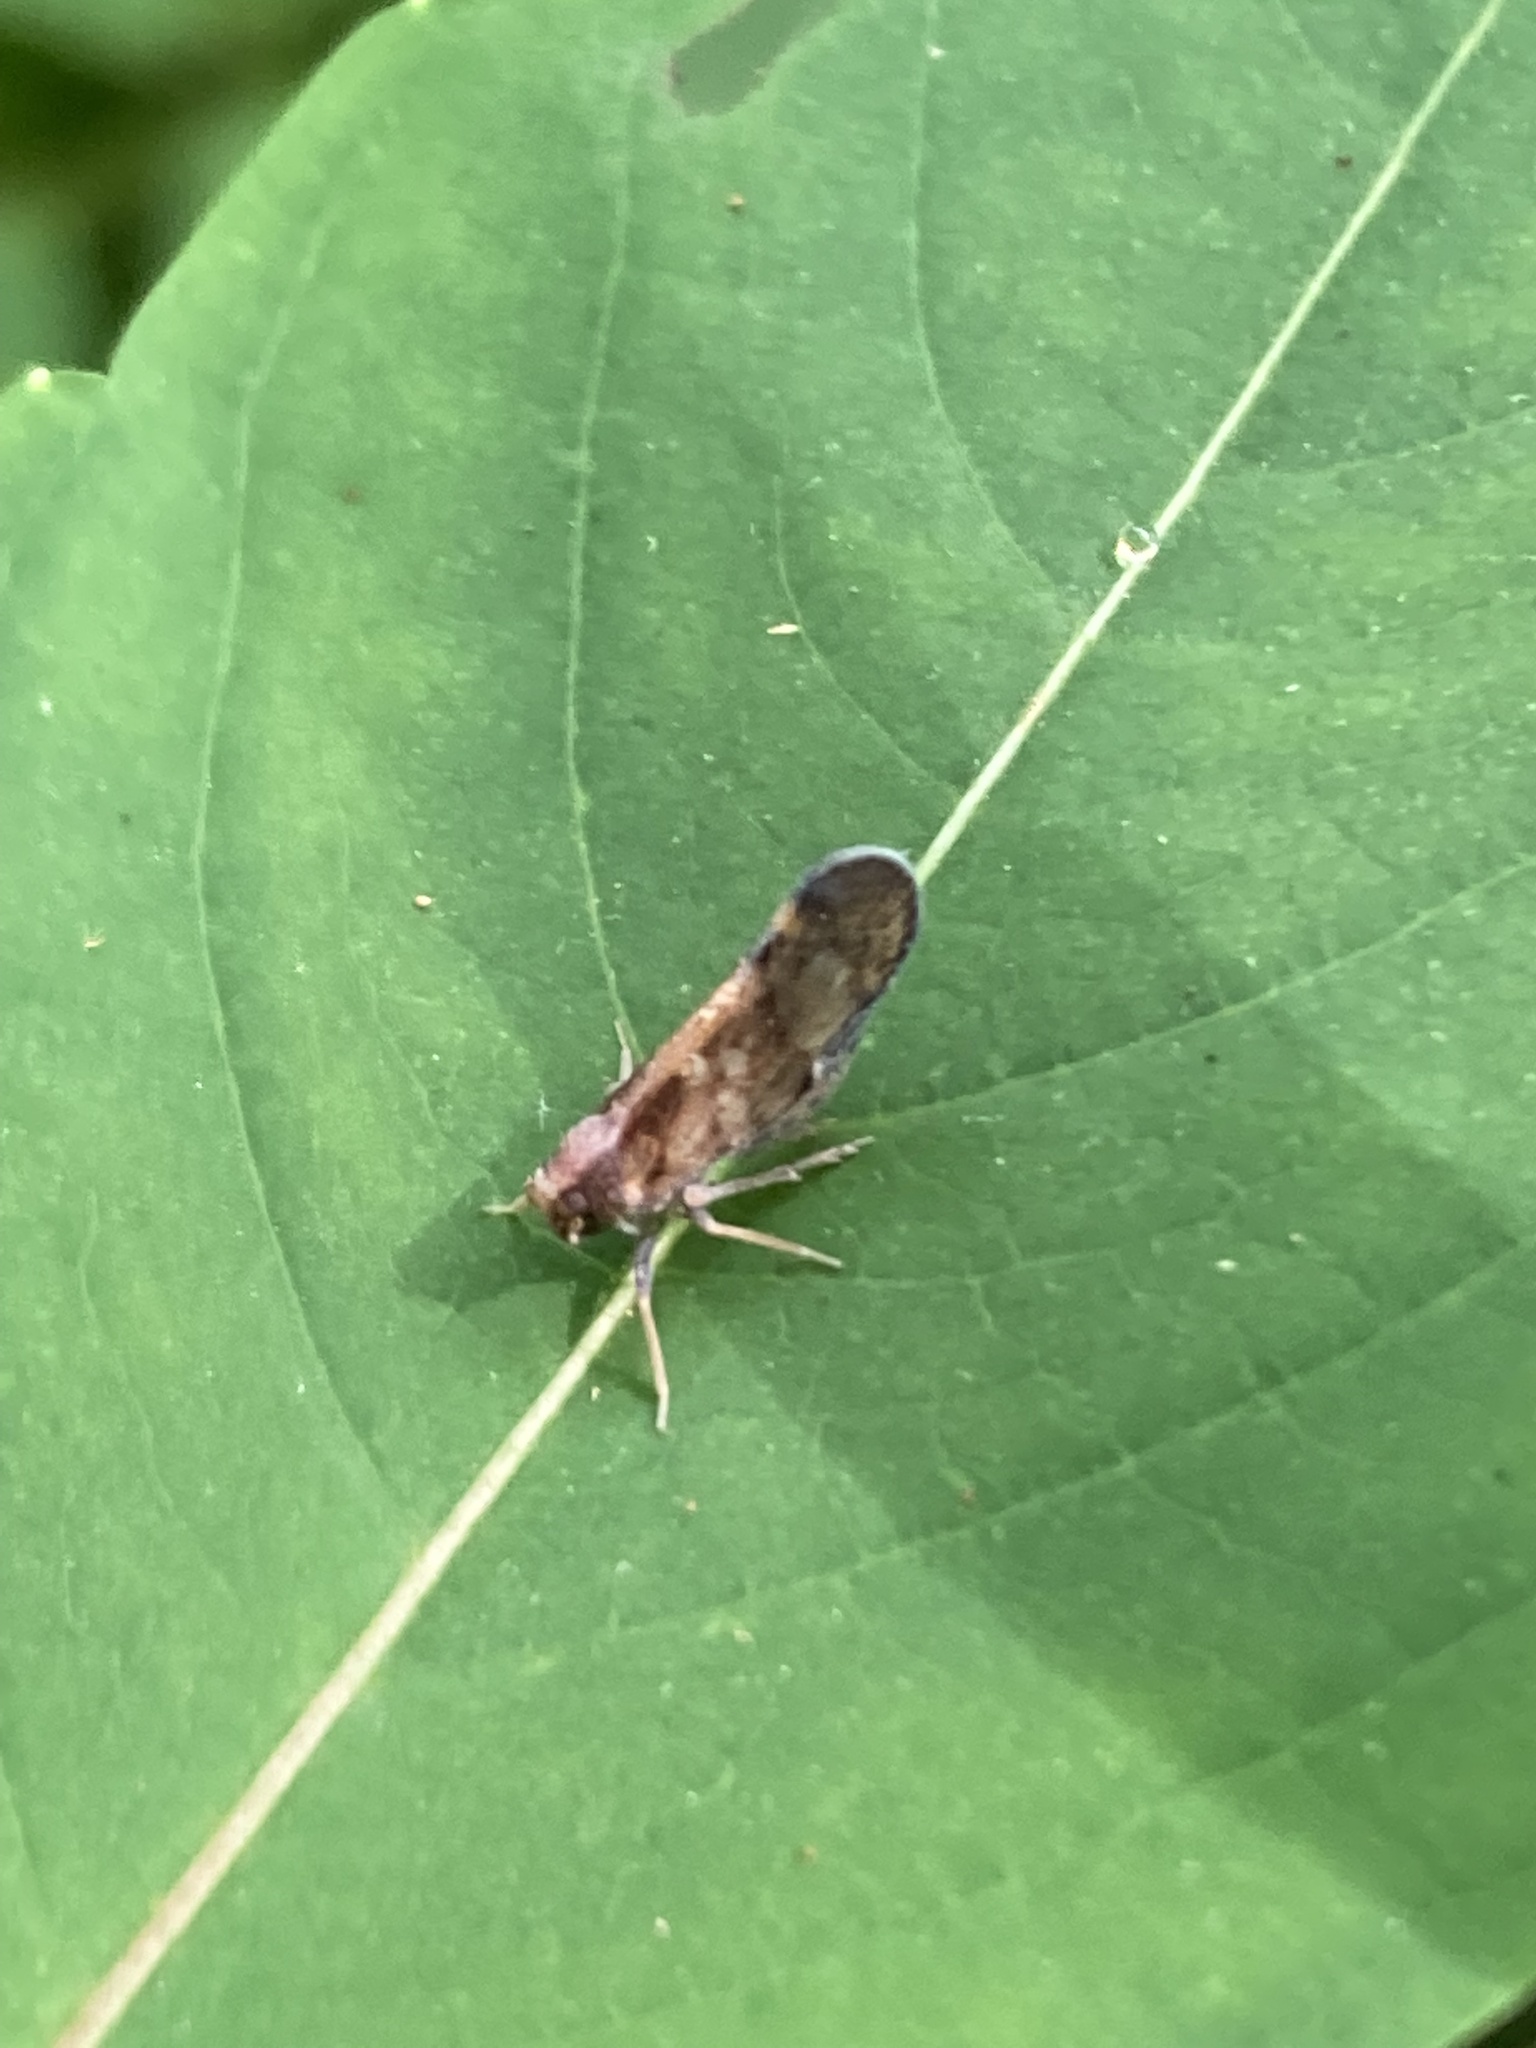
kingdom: Animalia
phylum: Arthropoda
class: Insecta
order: Hemiptera
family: Cixiidae
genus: Pintalia
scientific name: Pintalia vibex
